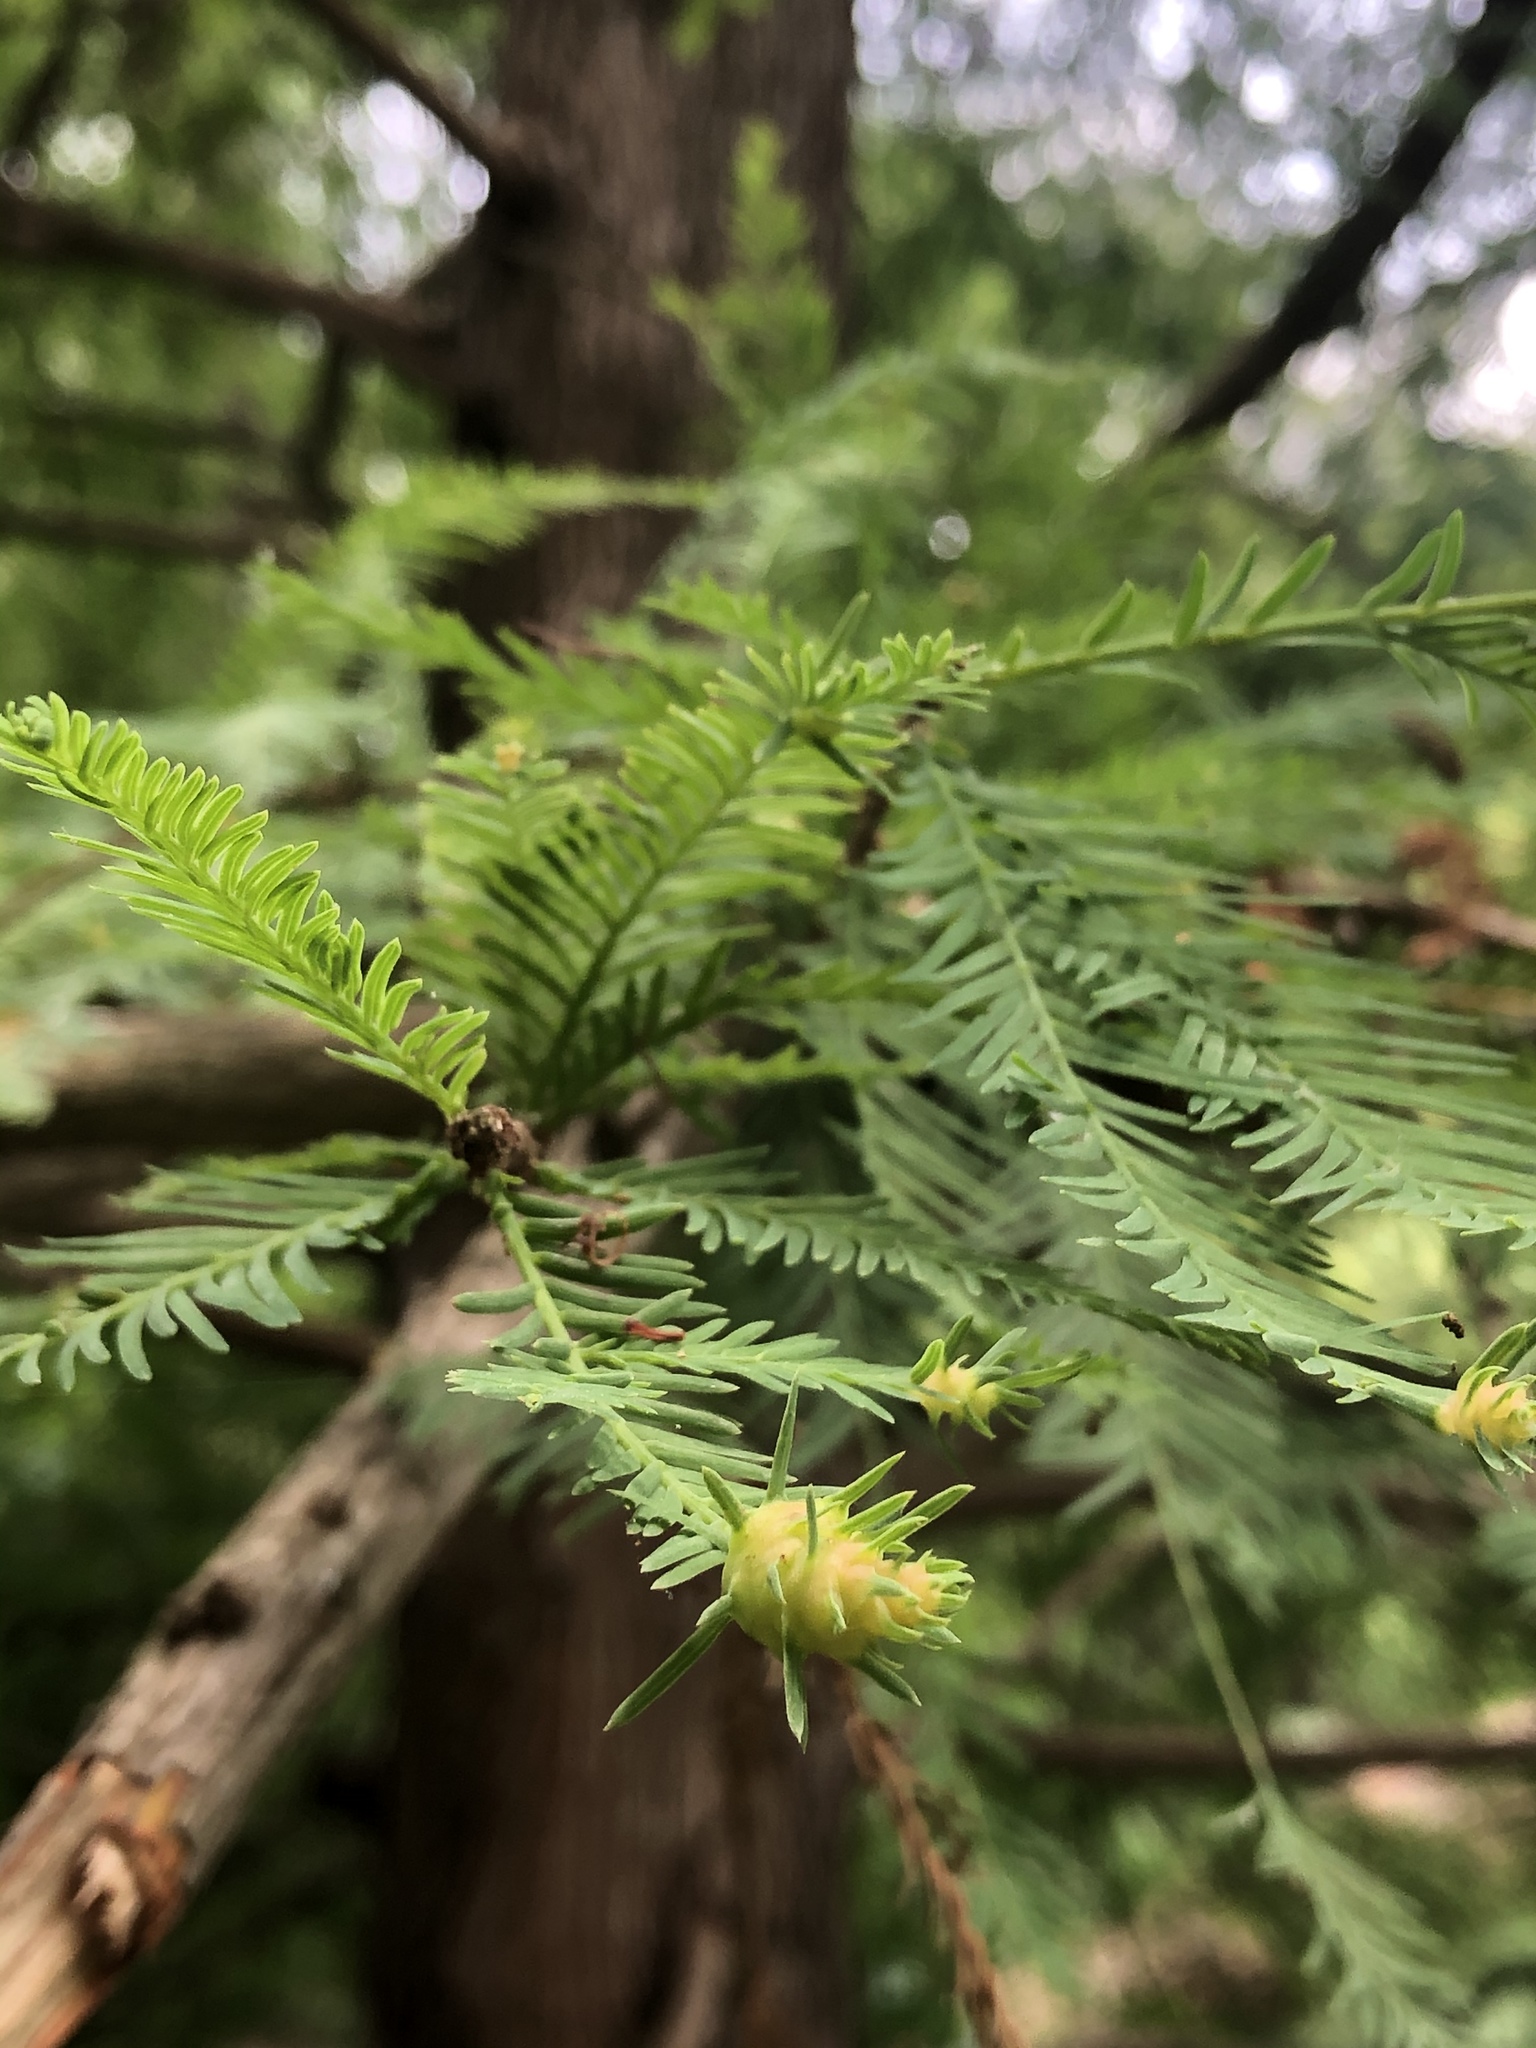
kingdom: Plantae
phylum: Tracheophyta
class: Pinopsida
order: Pinales
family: Cupressaceae
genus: Taxodium
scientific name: Taxodium distichum
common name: Bald cypress
